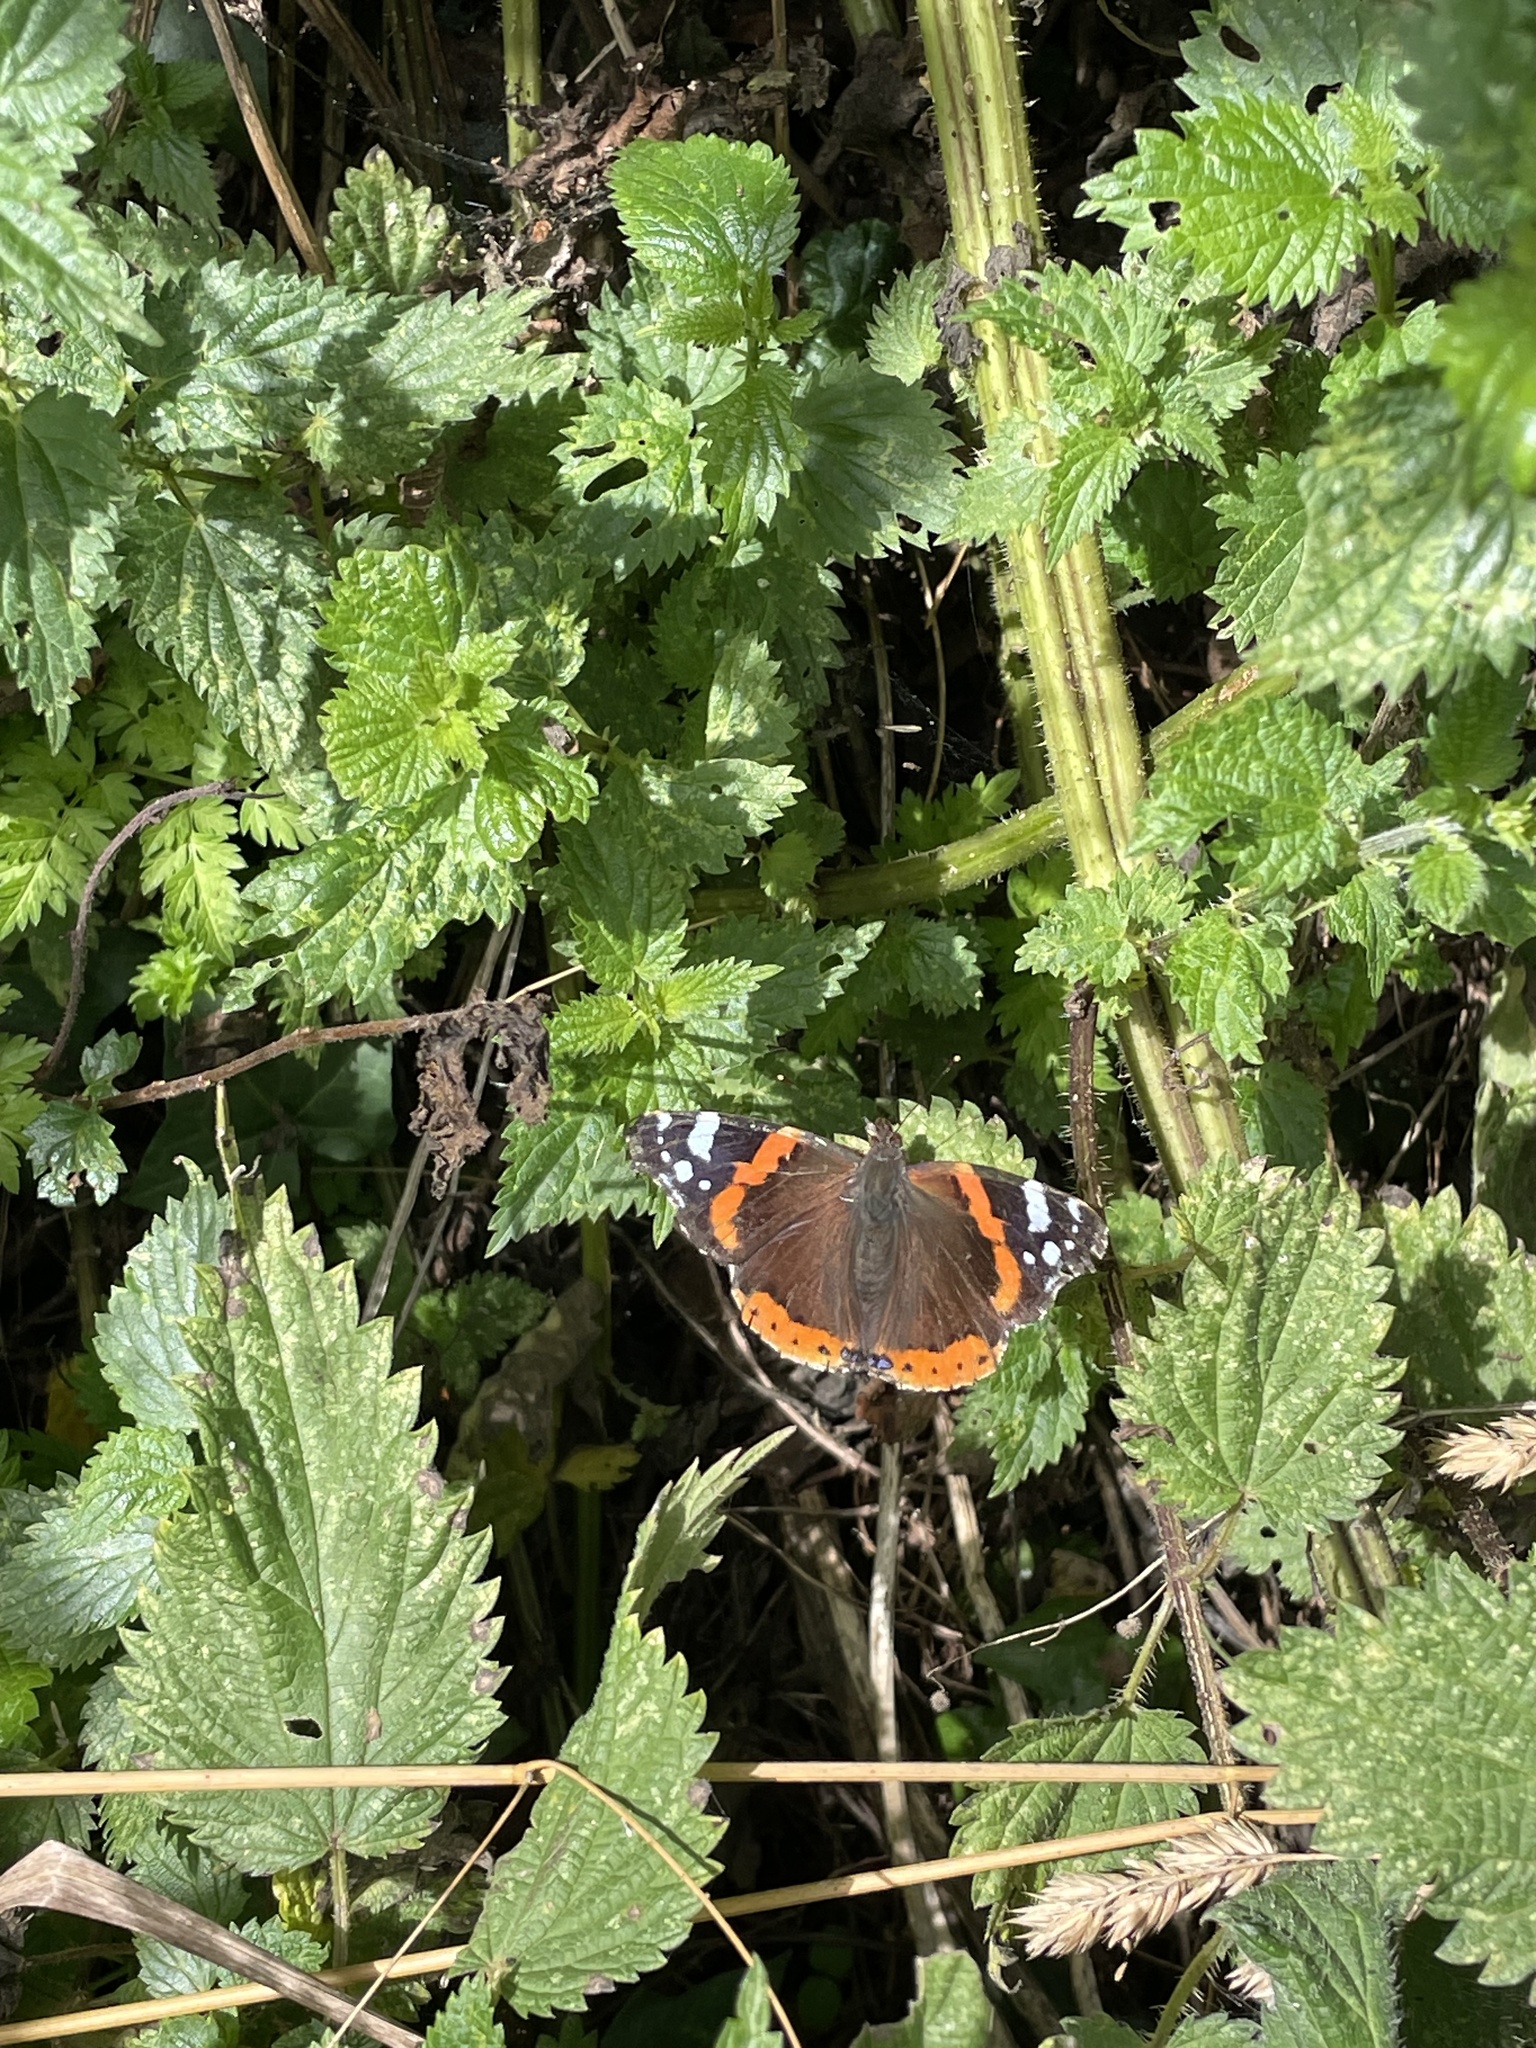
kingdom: Animalia
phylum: Arthropoda
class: Insecta
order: Lepidoptera
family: Nymphalidae
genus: Vanessa
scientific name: Vanessa atalanta
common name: Red admiral
